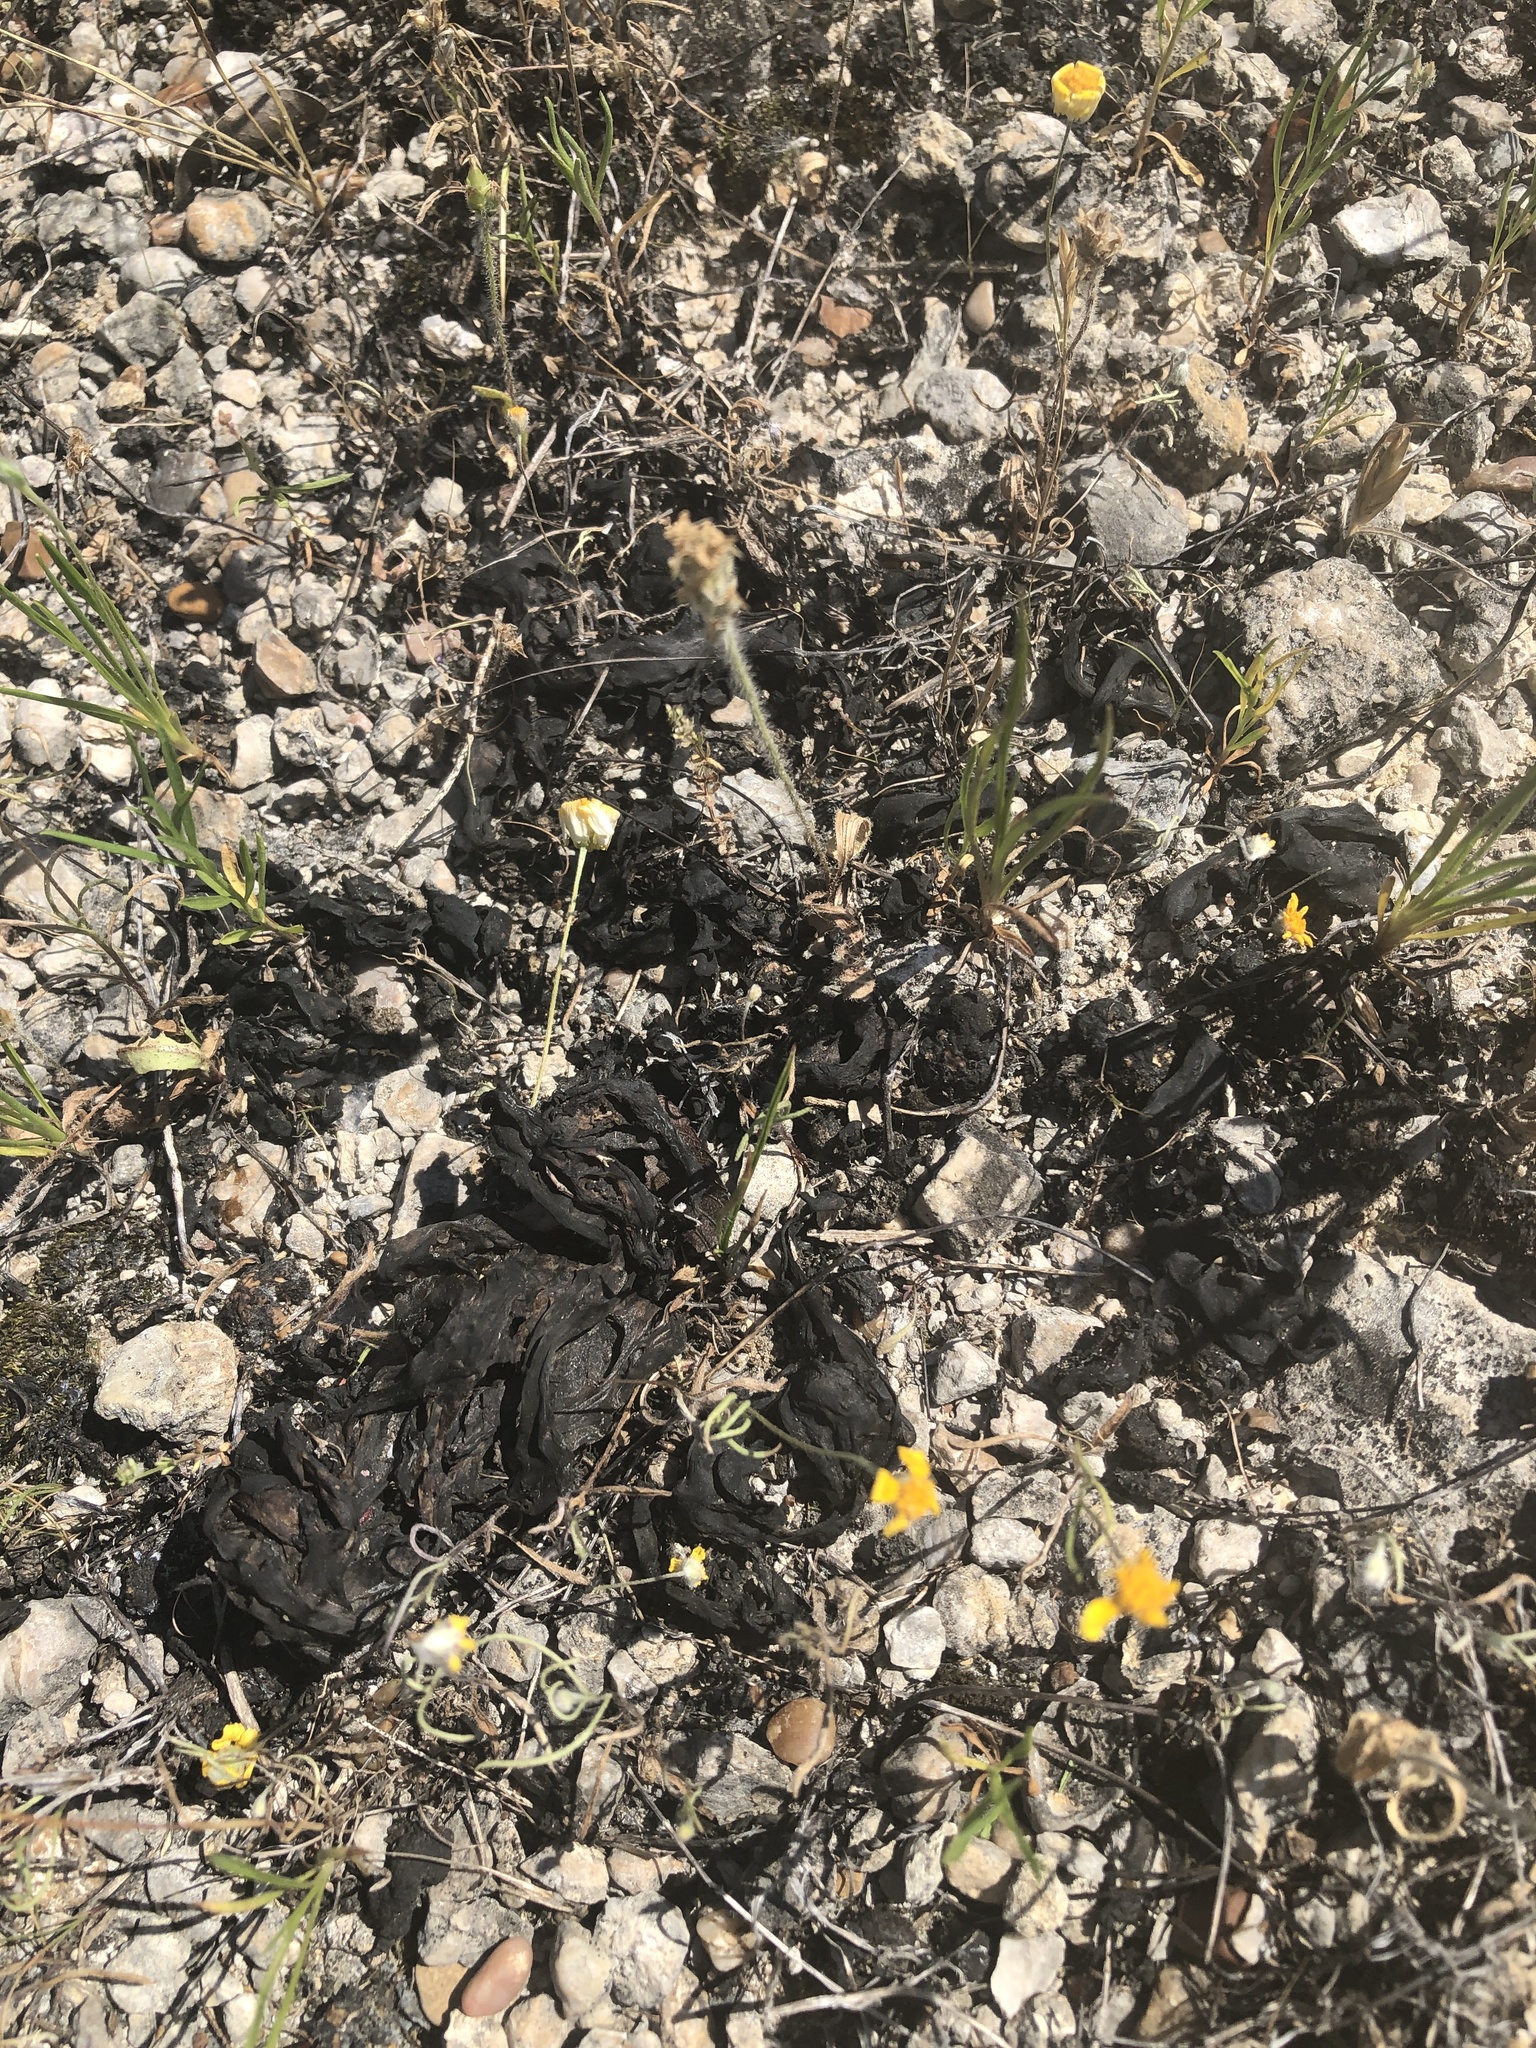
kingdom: Bacteria
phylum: Cyanobacteria
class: Cyanobacteriia
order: Cyanobacteriales
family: Nostocaceae
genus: Nostoc
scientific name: Nostoc commune
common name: Star jelly
